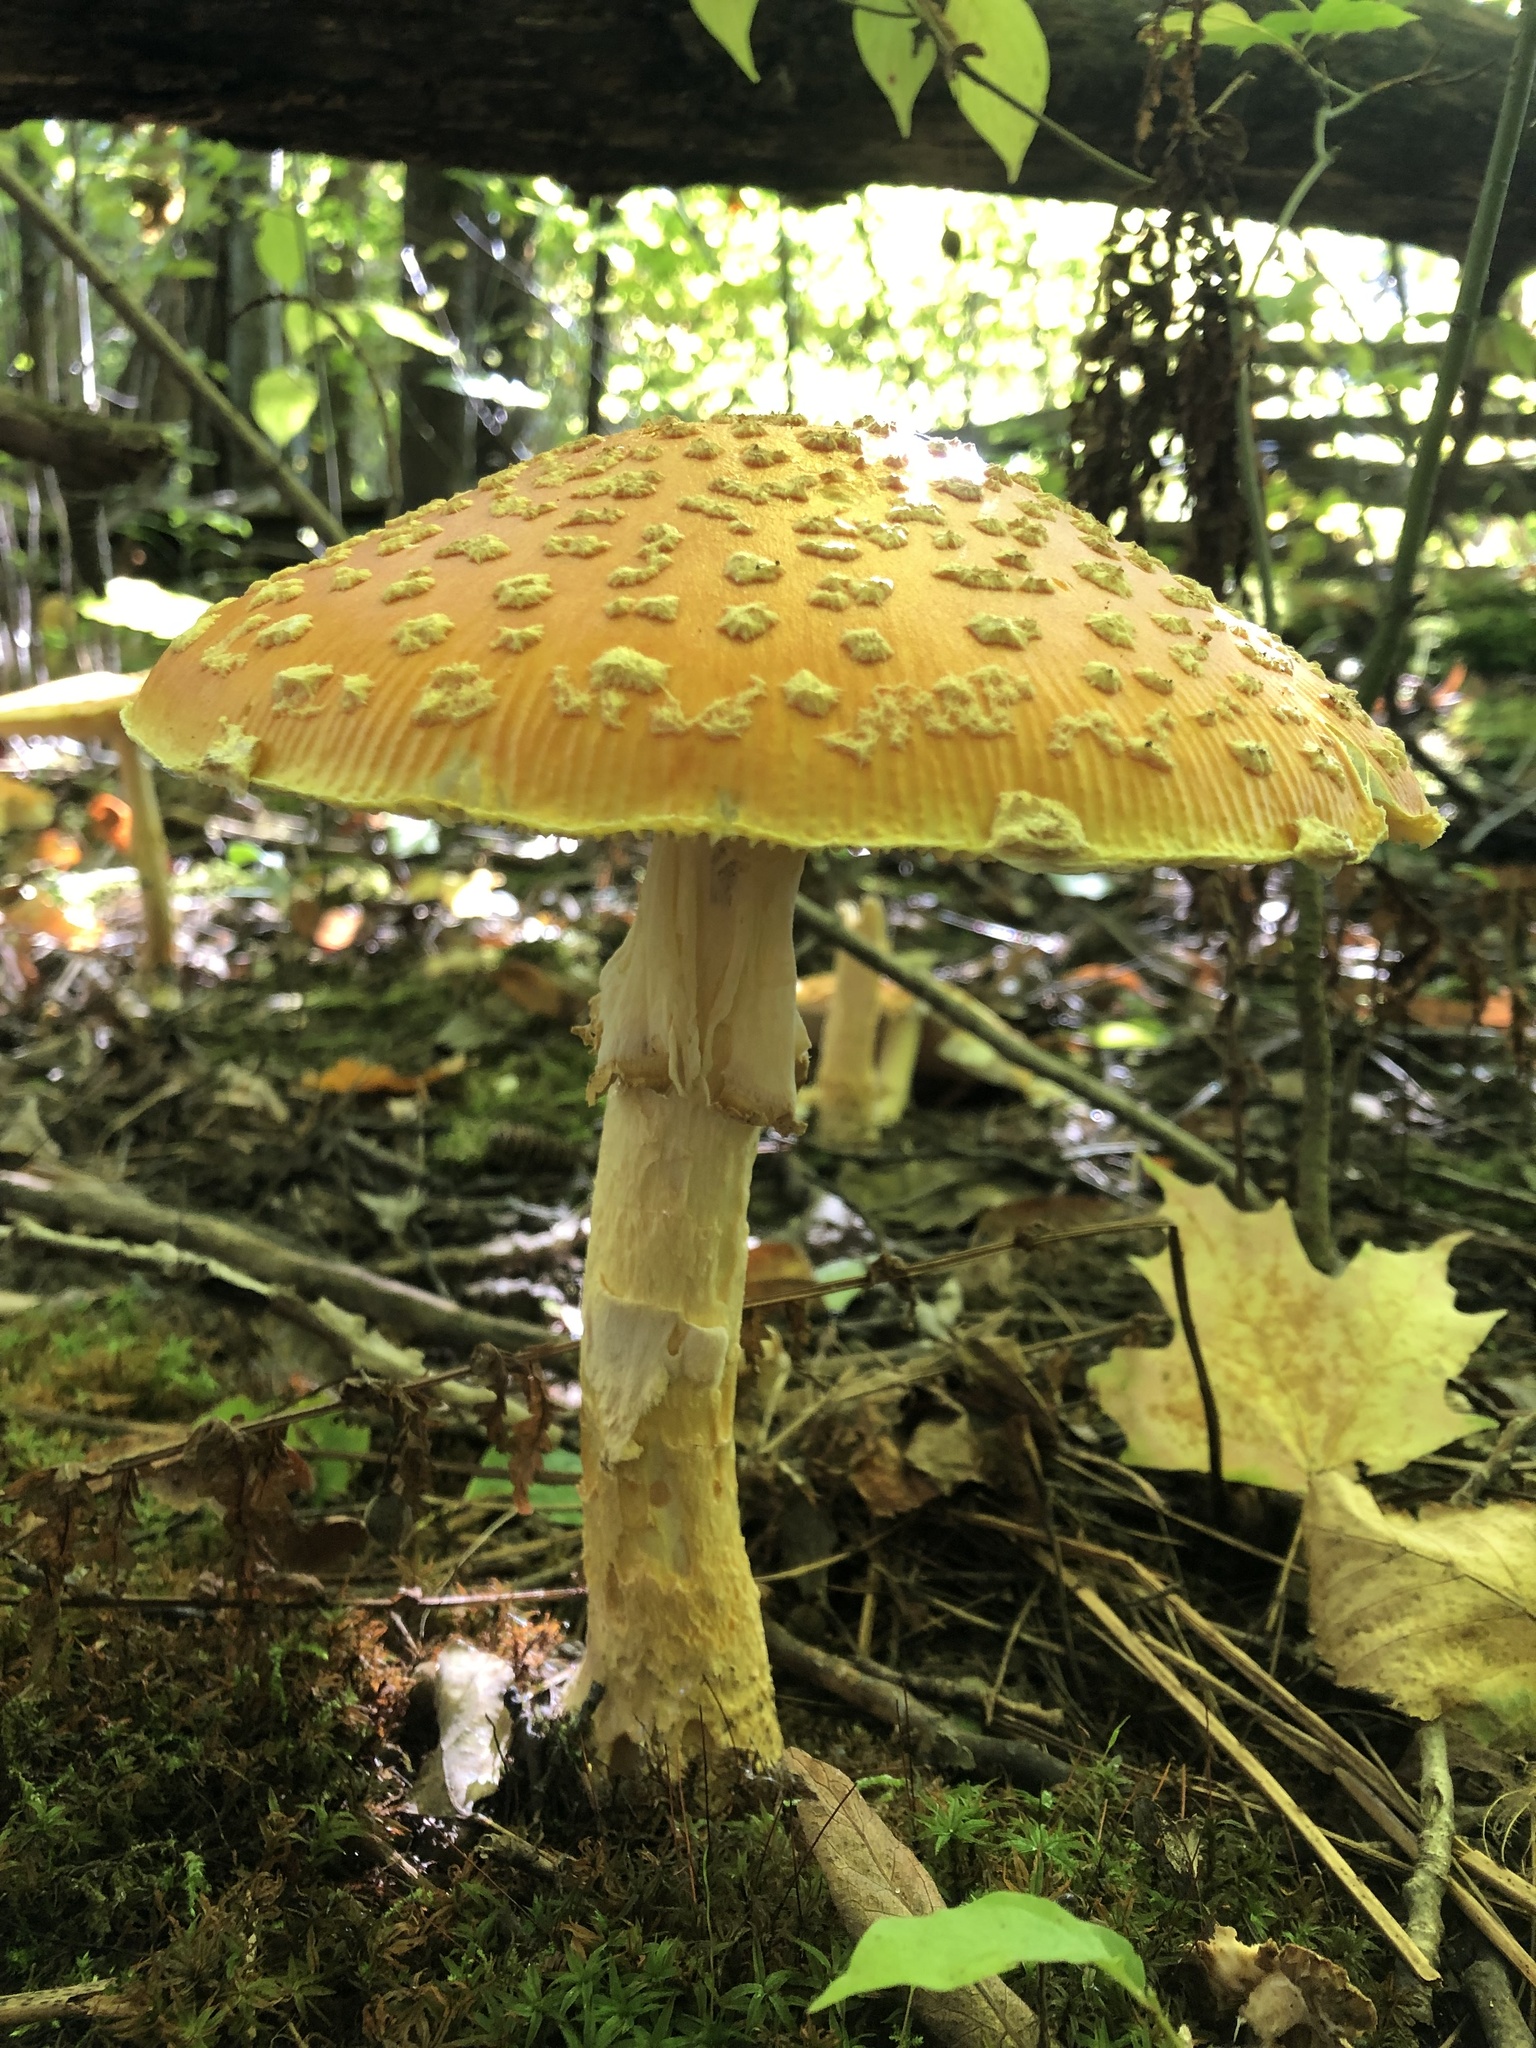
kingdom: Fungi
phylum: Basidiomycota
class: Agaricomycetes
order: Agaricales
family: Amanitaceae
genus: Amanita
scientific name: Amanita muscaria
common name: Fly agaric
